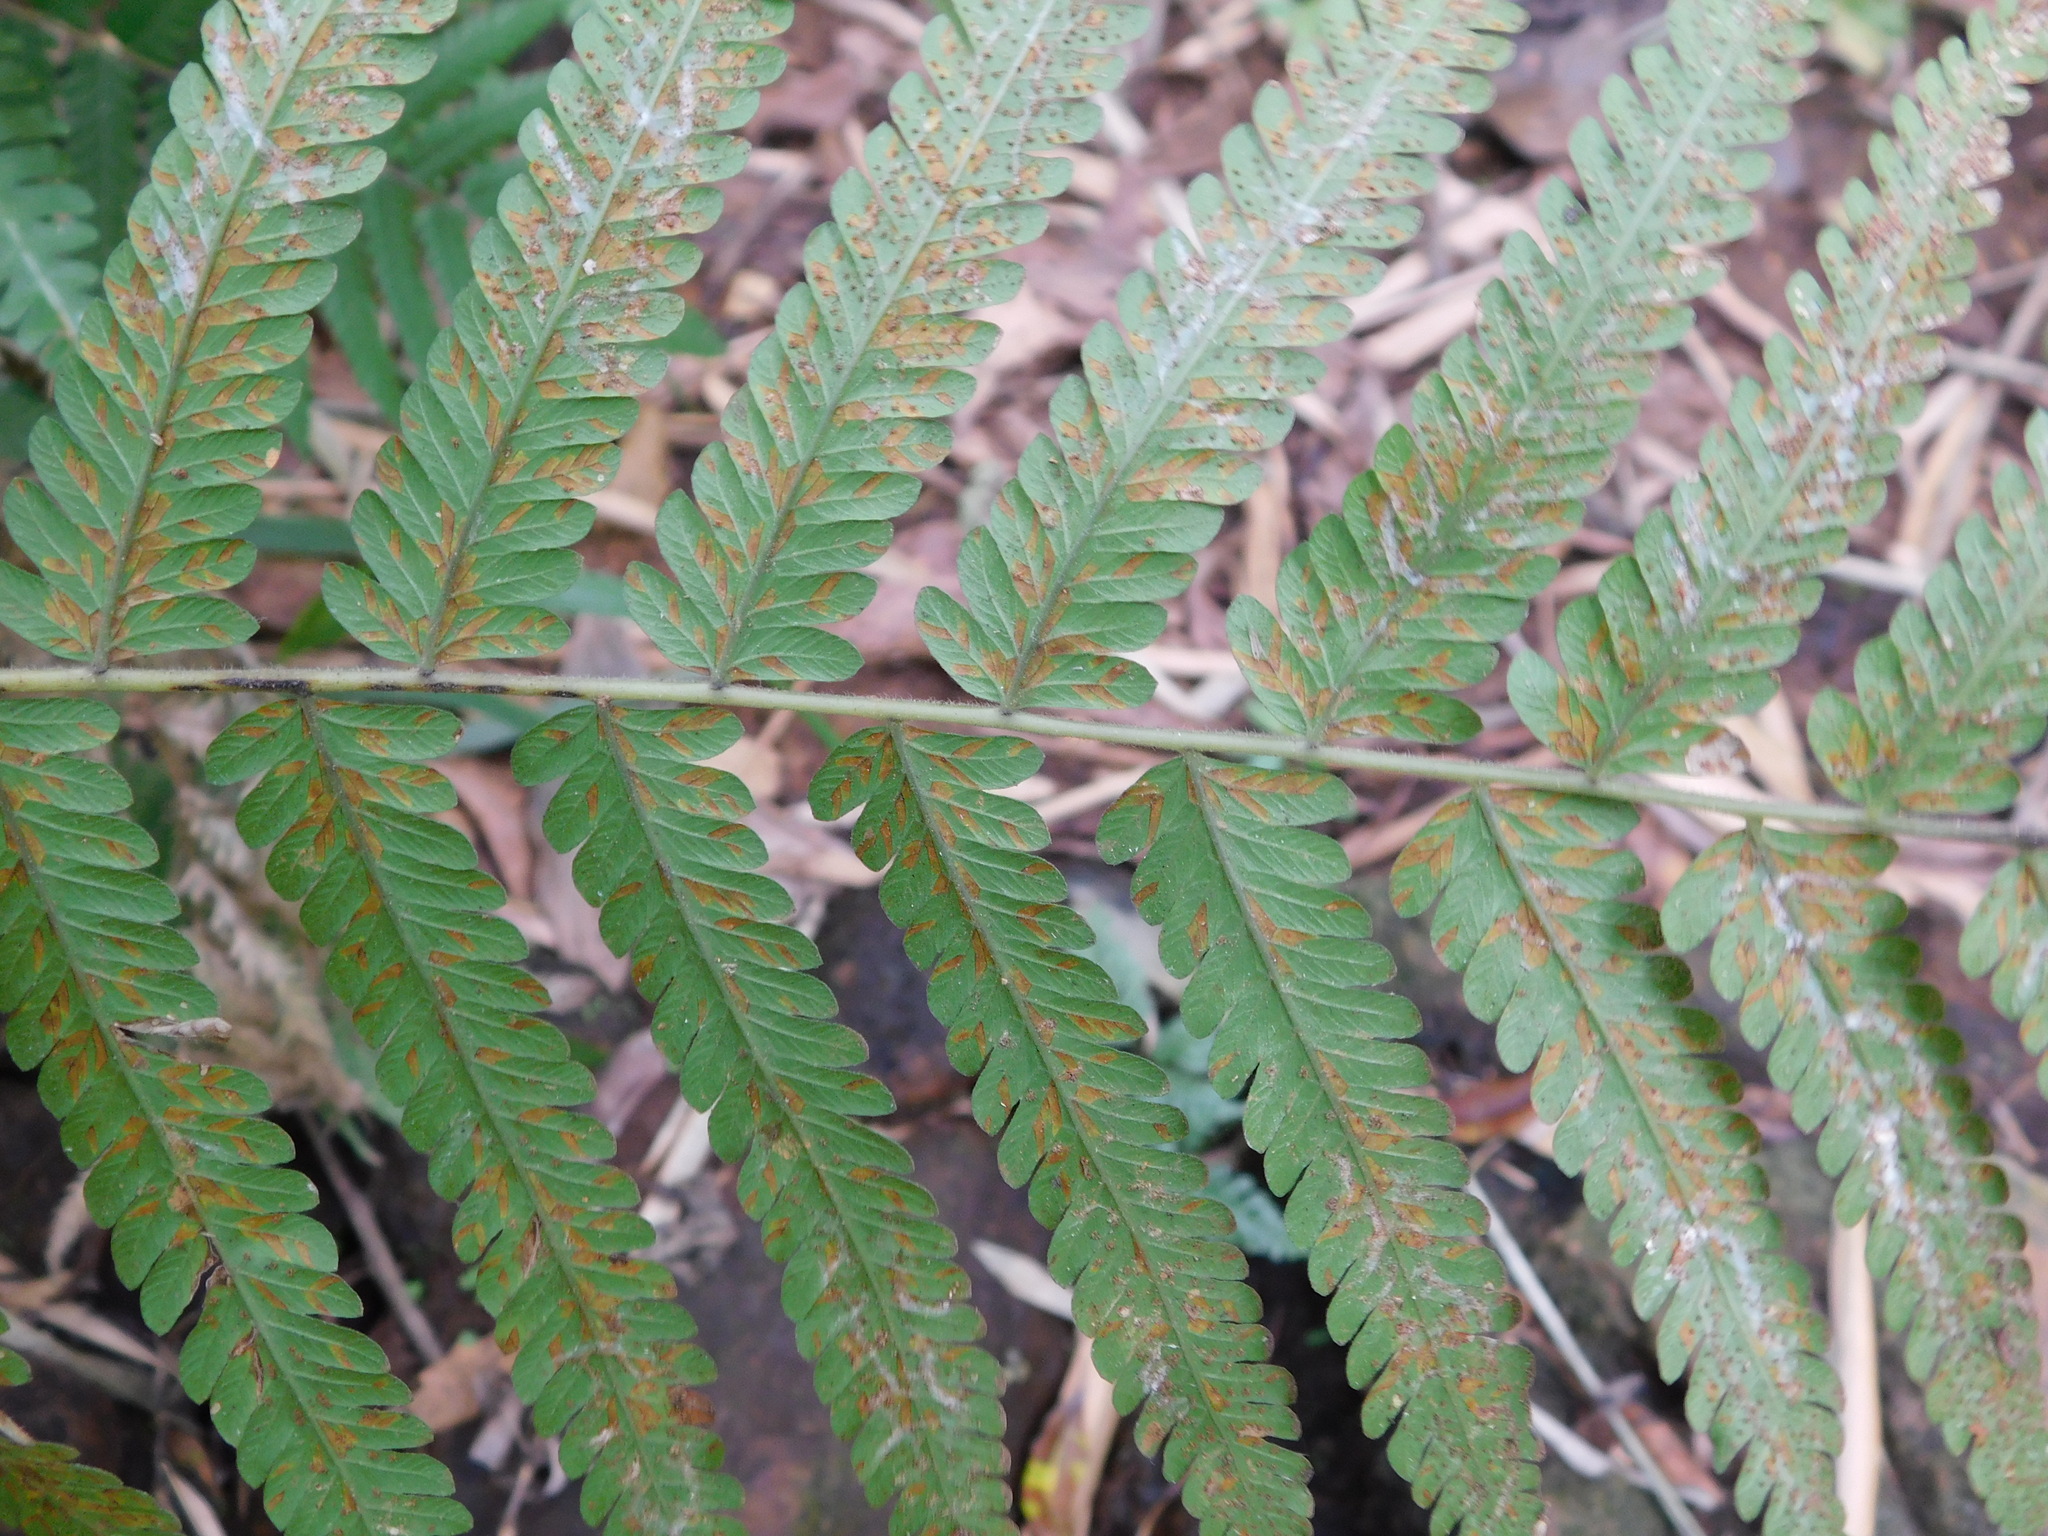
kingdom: Plantae
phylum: Tracheophyta
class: Polypodiopsida
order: Polypodiales
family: Thelypteridaceae
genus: Christella
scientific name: Christella dentata
